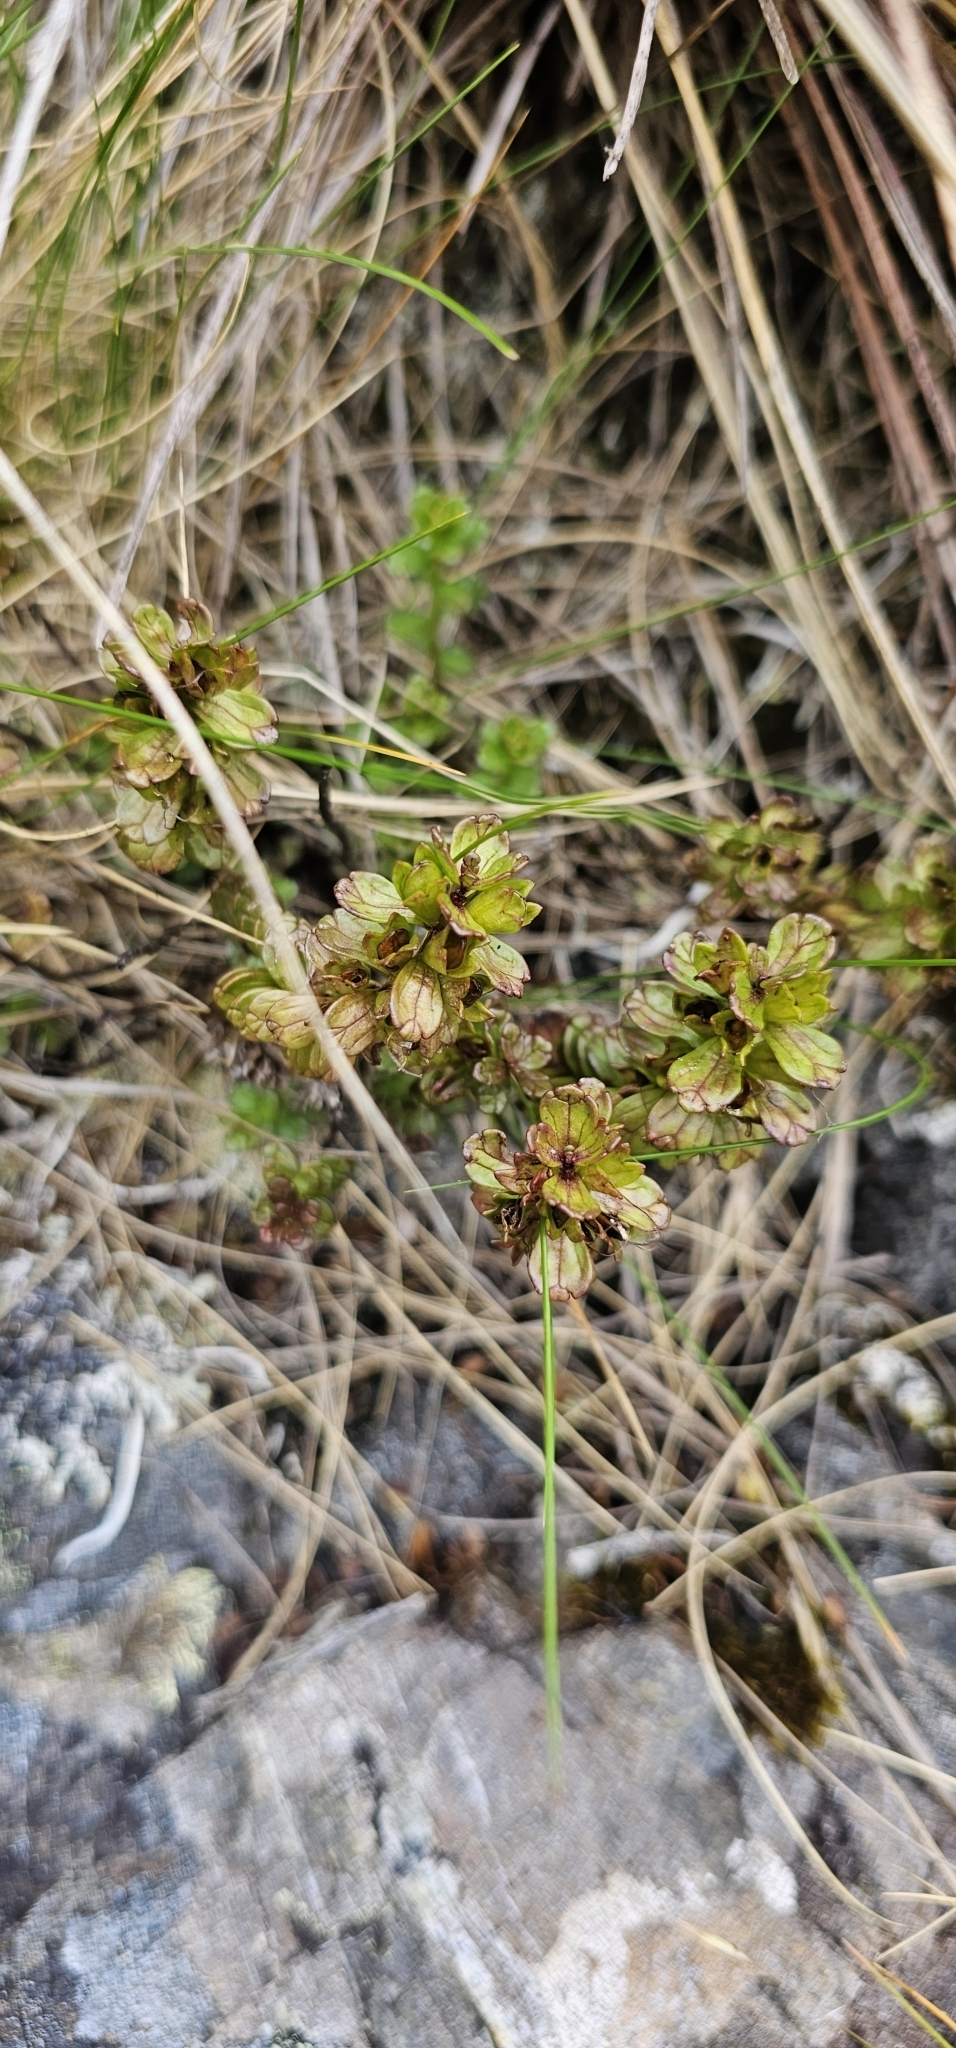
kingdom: Plantae
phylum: Tracheophyta
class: Magnoliopsida
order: Lamiales
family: Orobanchaceae
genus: Euphrasia
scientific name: Euphrasia monroi
